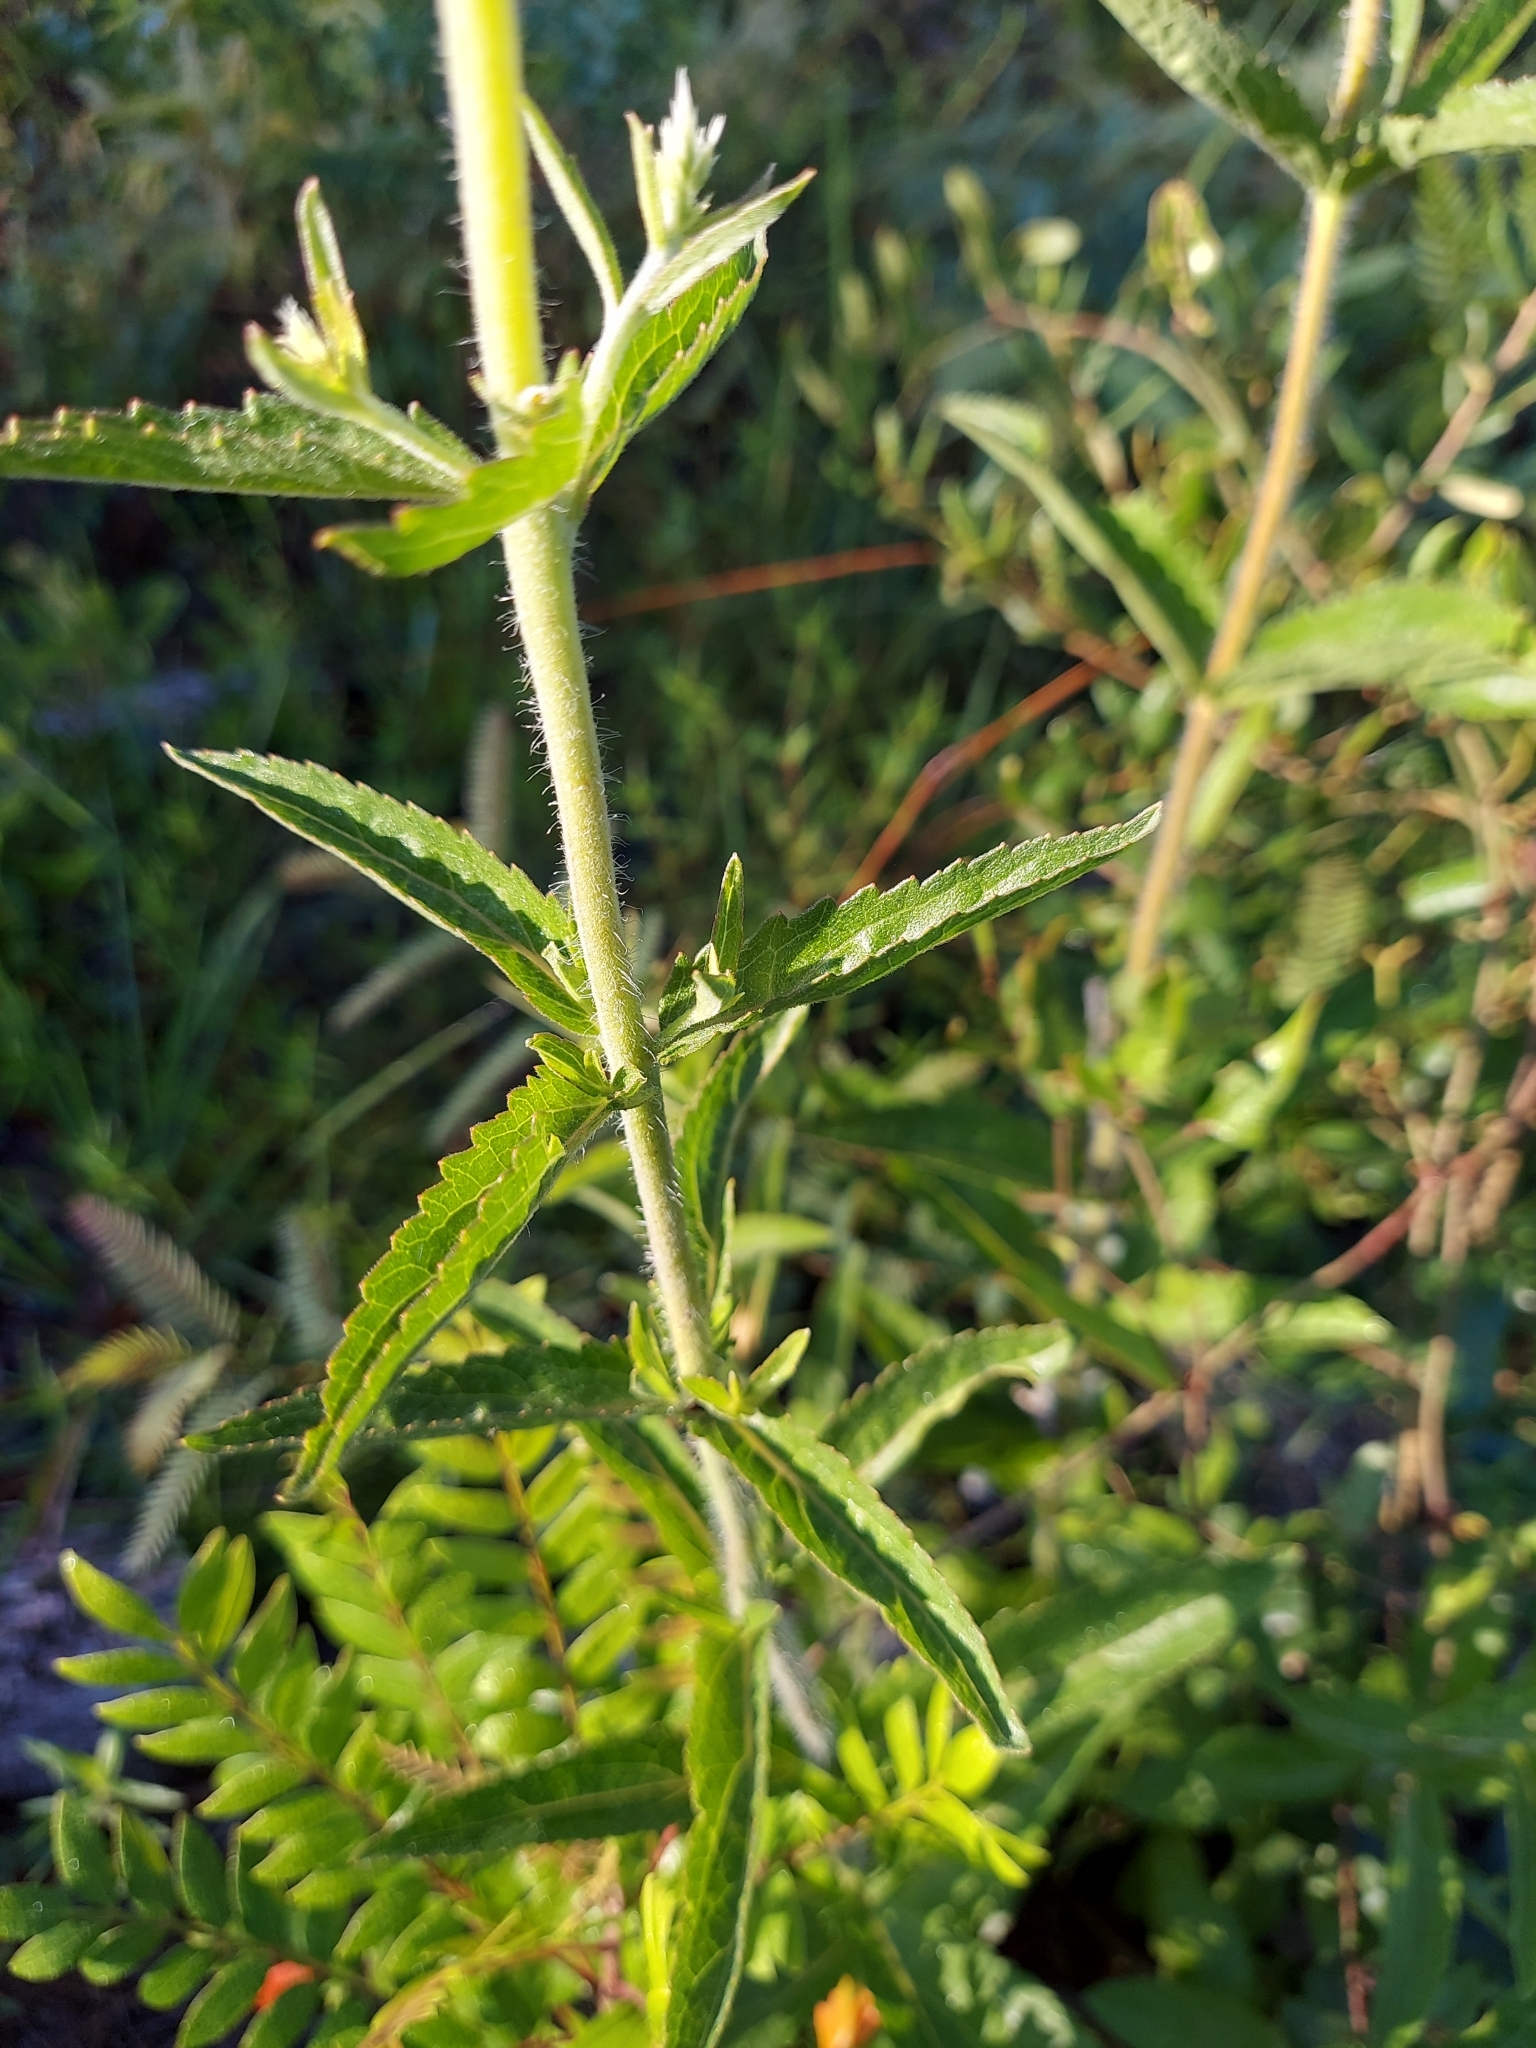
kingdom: Plantae
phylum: Tracheophyta
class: Magnoliopsida
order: Asterales
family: Asteraceae
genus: Eupatorium
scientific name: Eupatorium album
